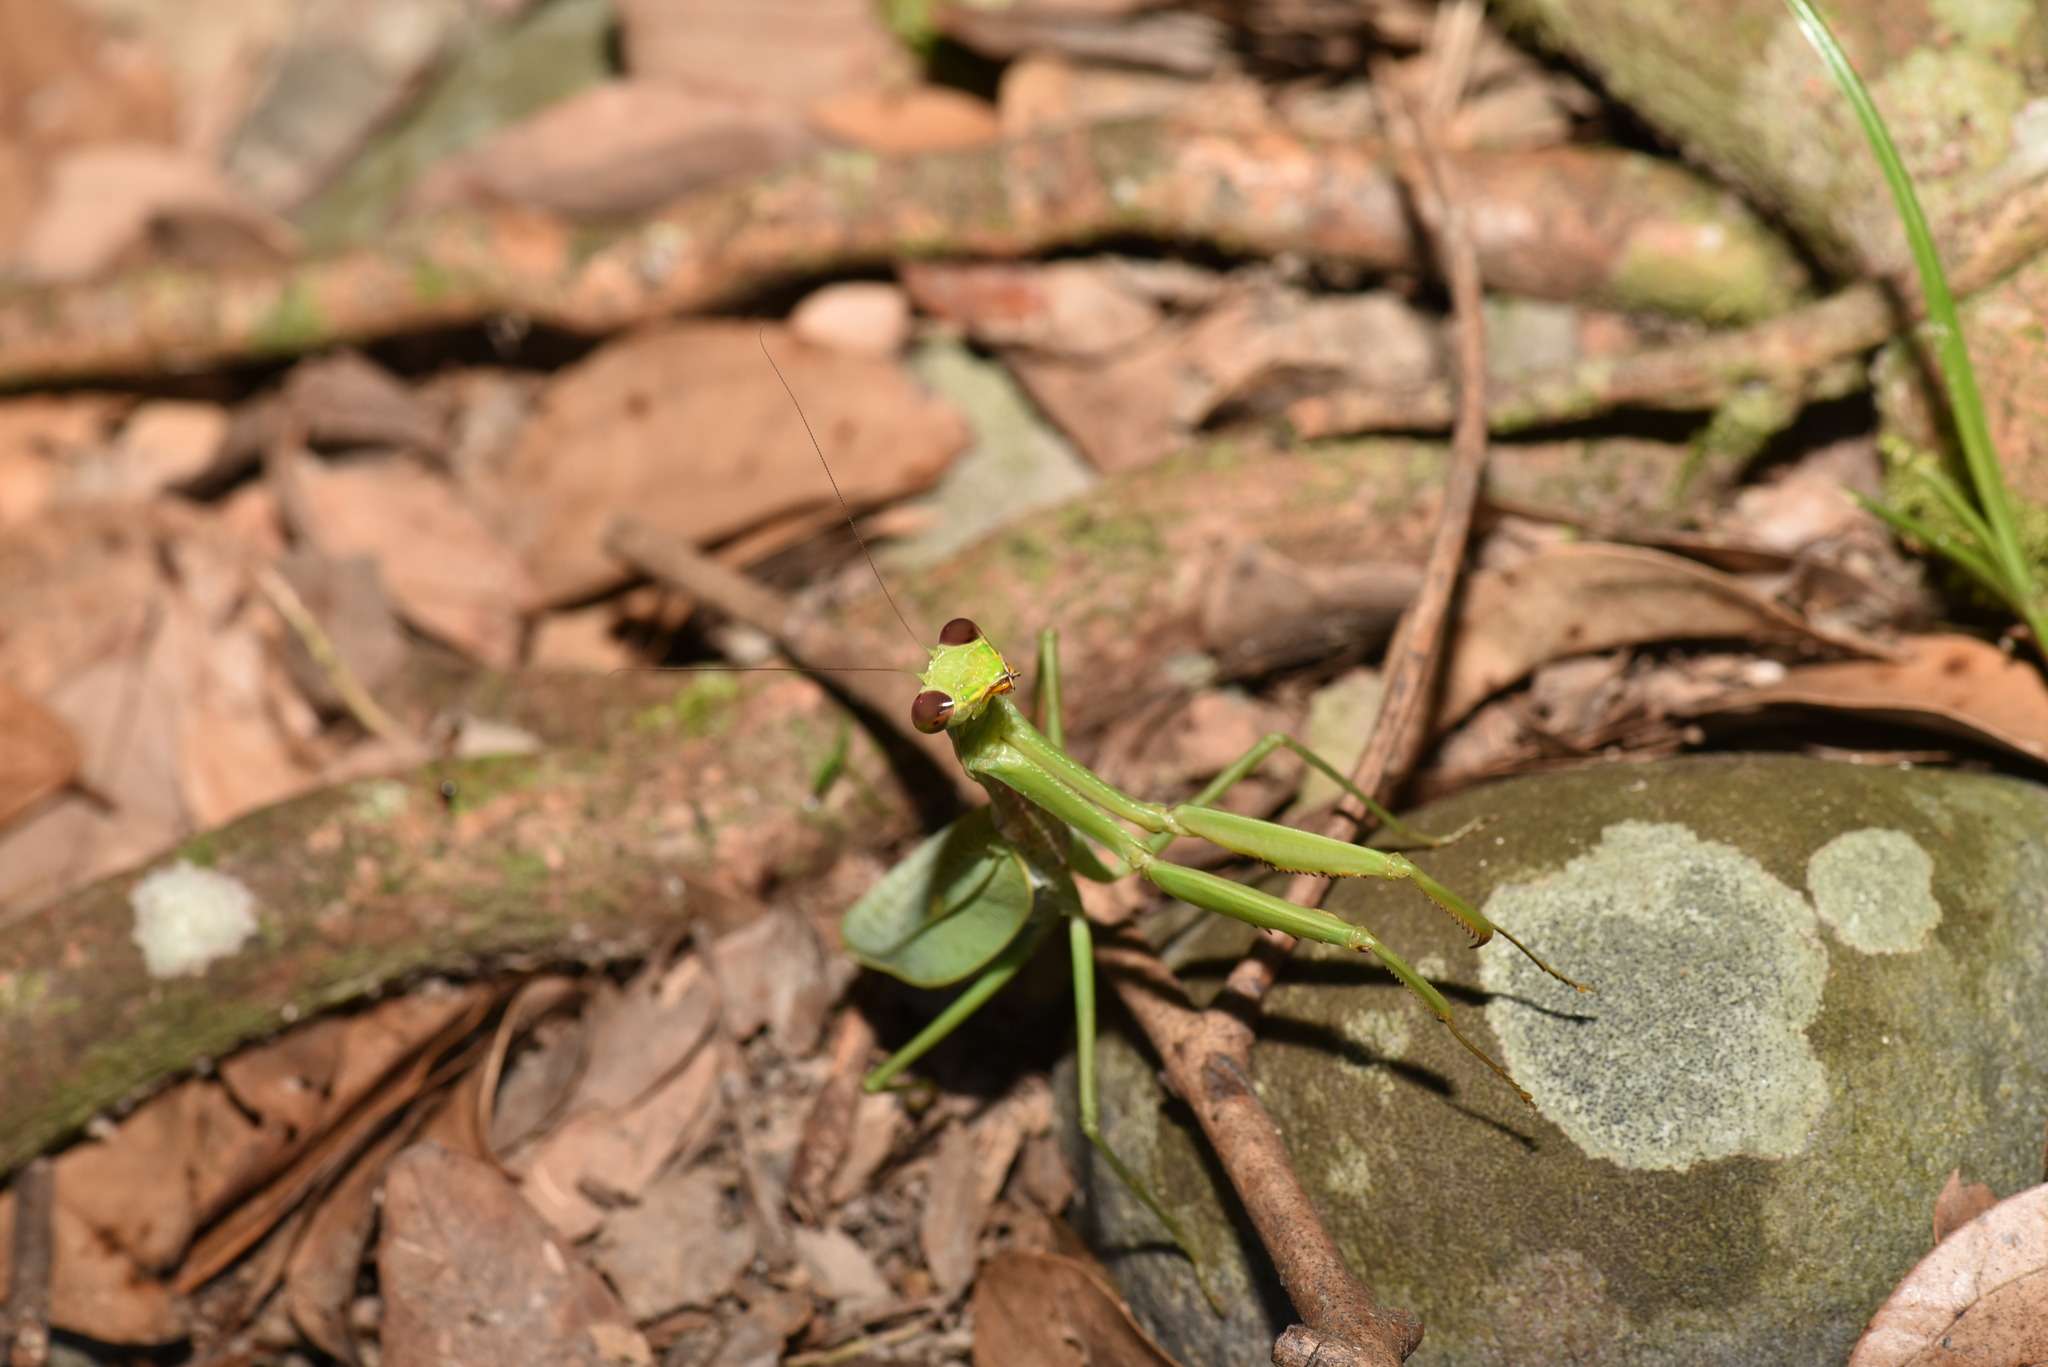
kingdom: Animalia
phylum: Arthropoda
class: Insecta
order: Mantodea
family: Mantidae
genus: Titanodula
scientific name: Titanodula formosana
